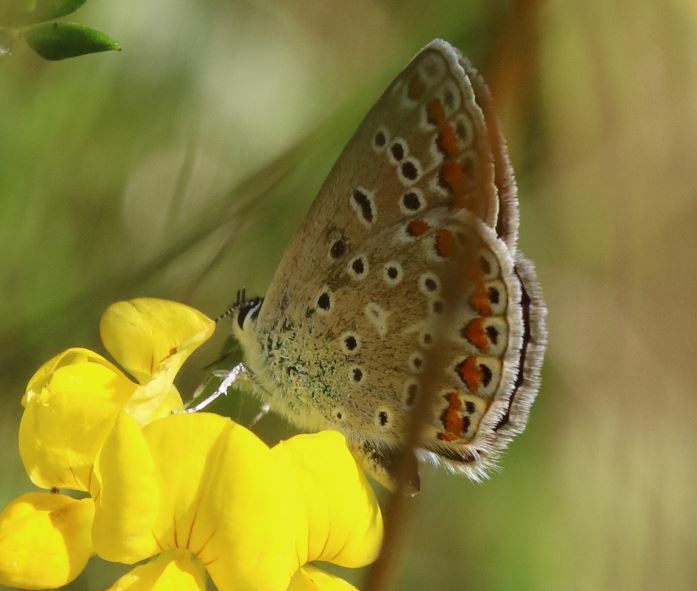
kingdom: Animalia
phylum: Arthropoda
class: Insecta
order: Lepidoptera
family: Lycaenidae
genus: Polyommatus
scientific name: Polyommatus icarus
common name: Common blue
